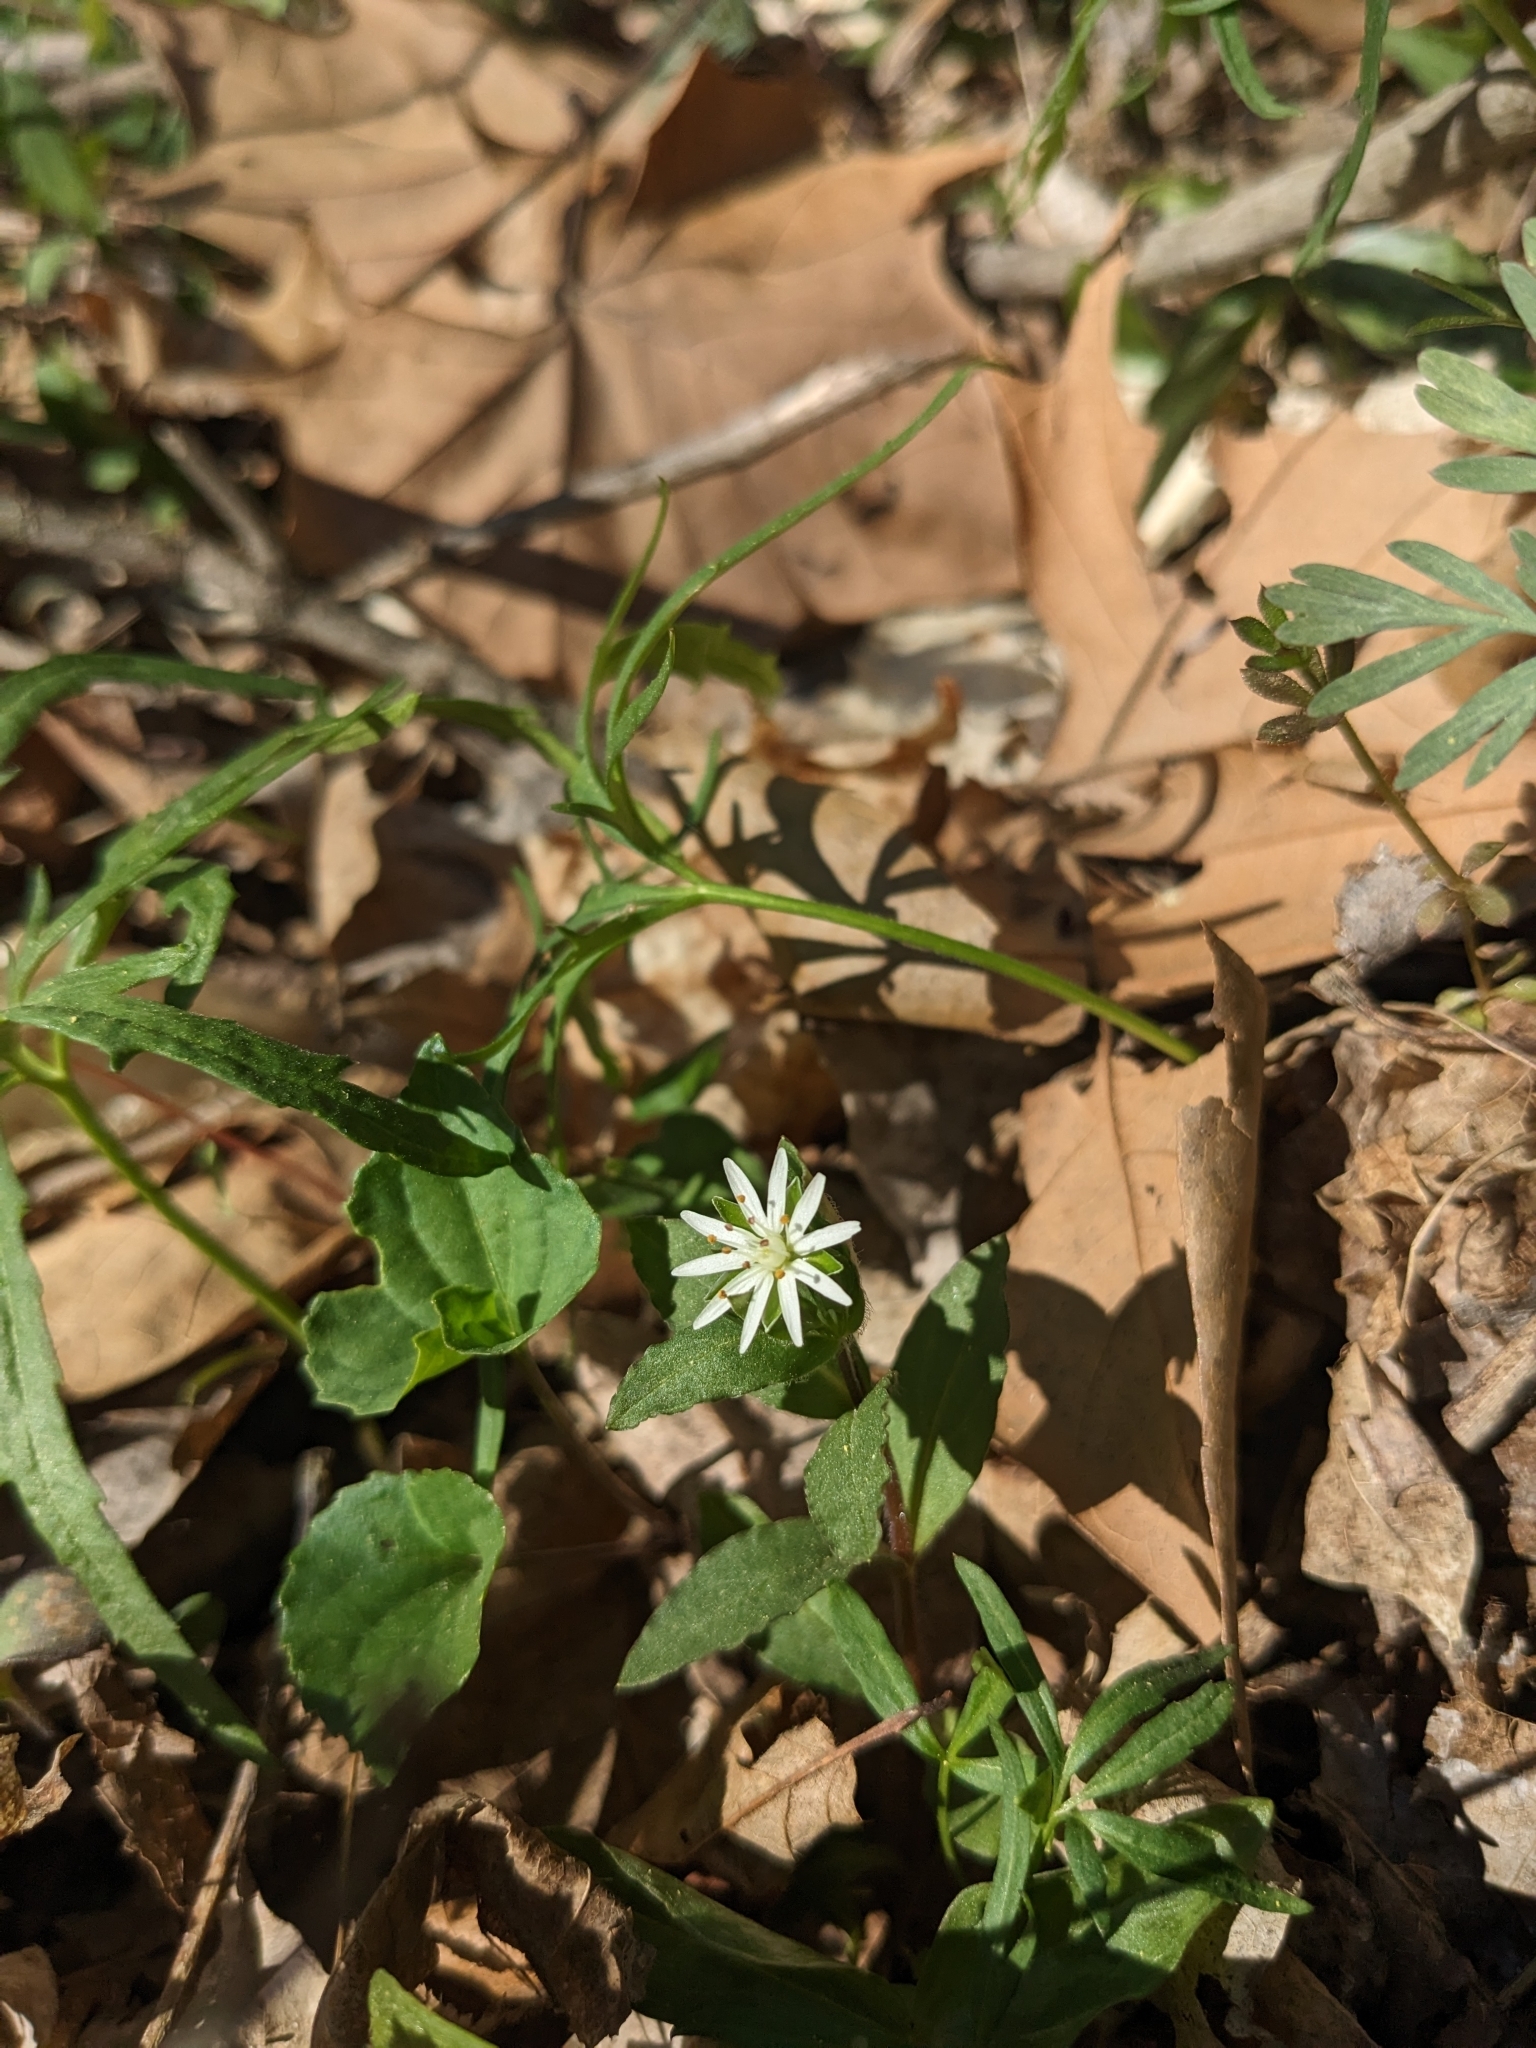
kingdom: Plantae
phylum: Tracheophyta
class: Magnoliopsida
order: Caryophyllales
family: Caryophyllaceae
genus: Stellaria
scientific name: Stellaria pubera
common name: Star chickweed
